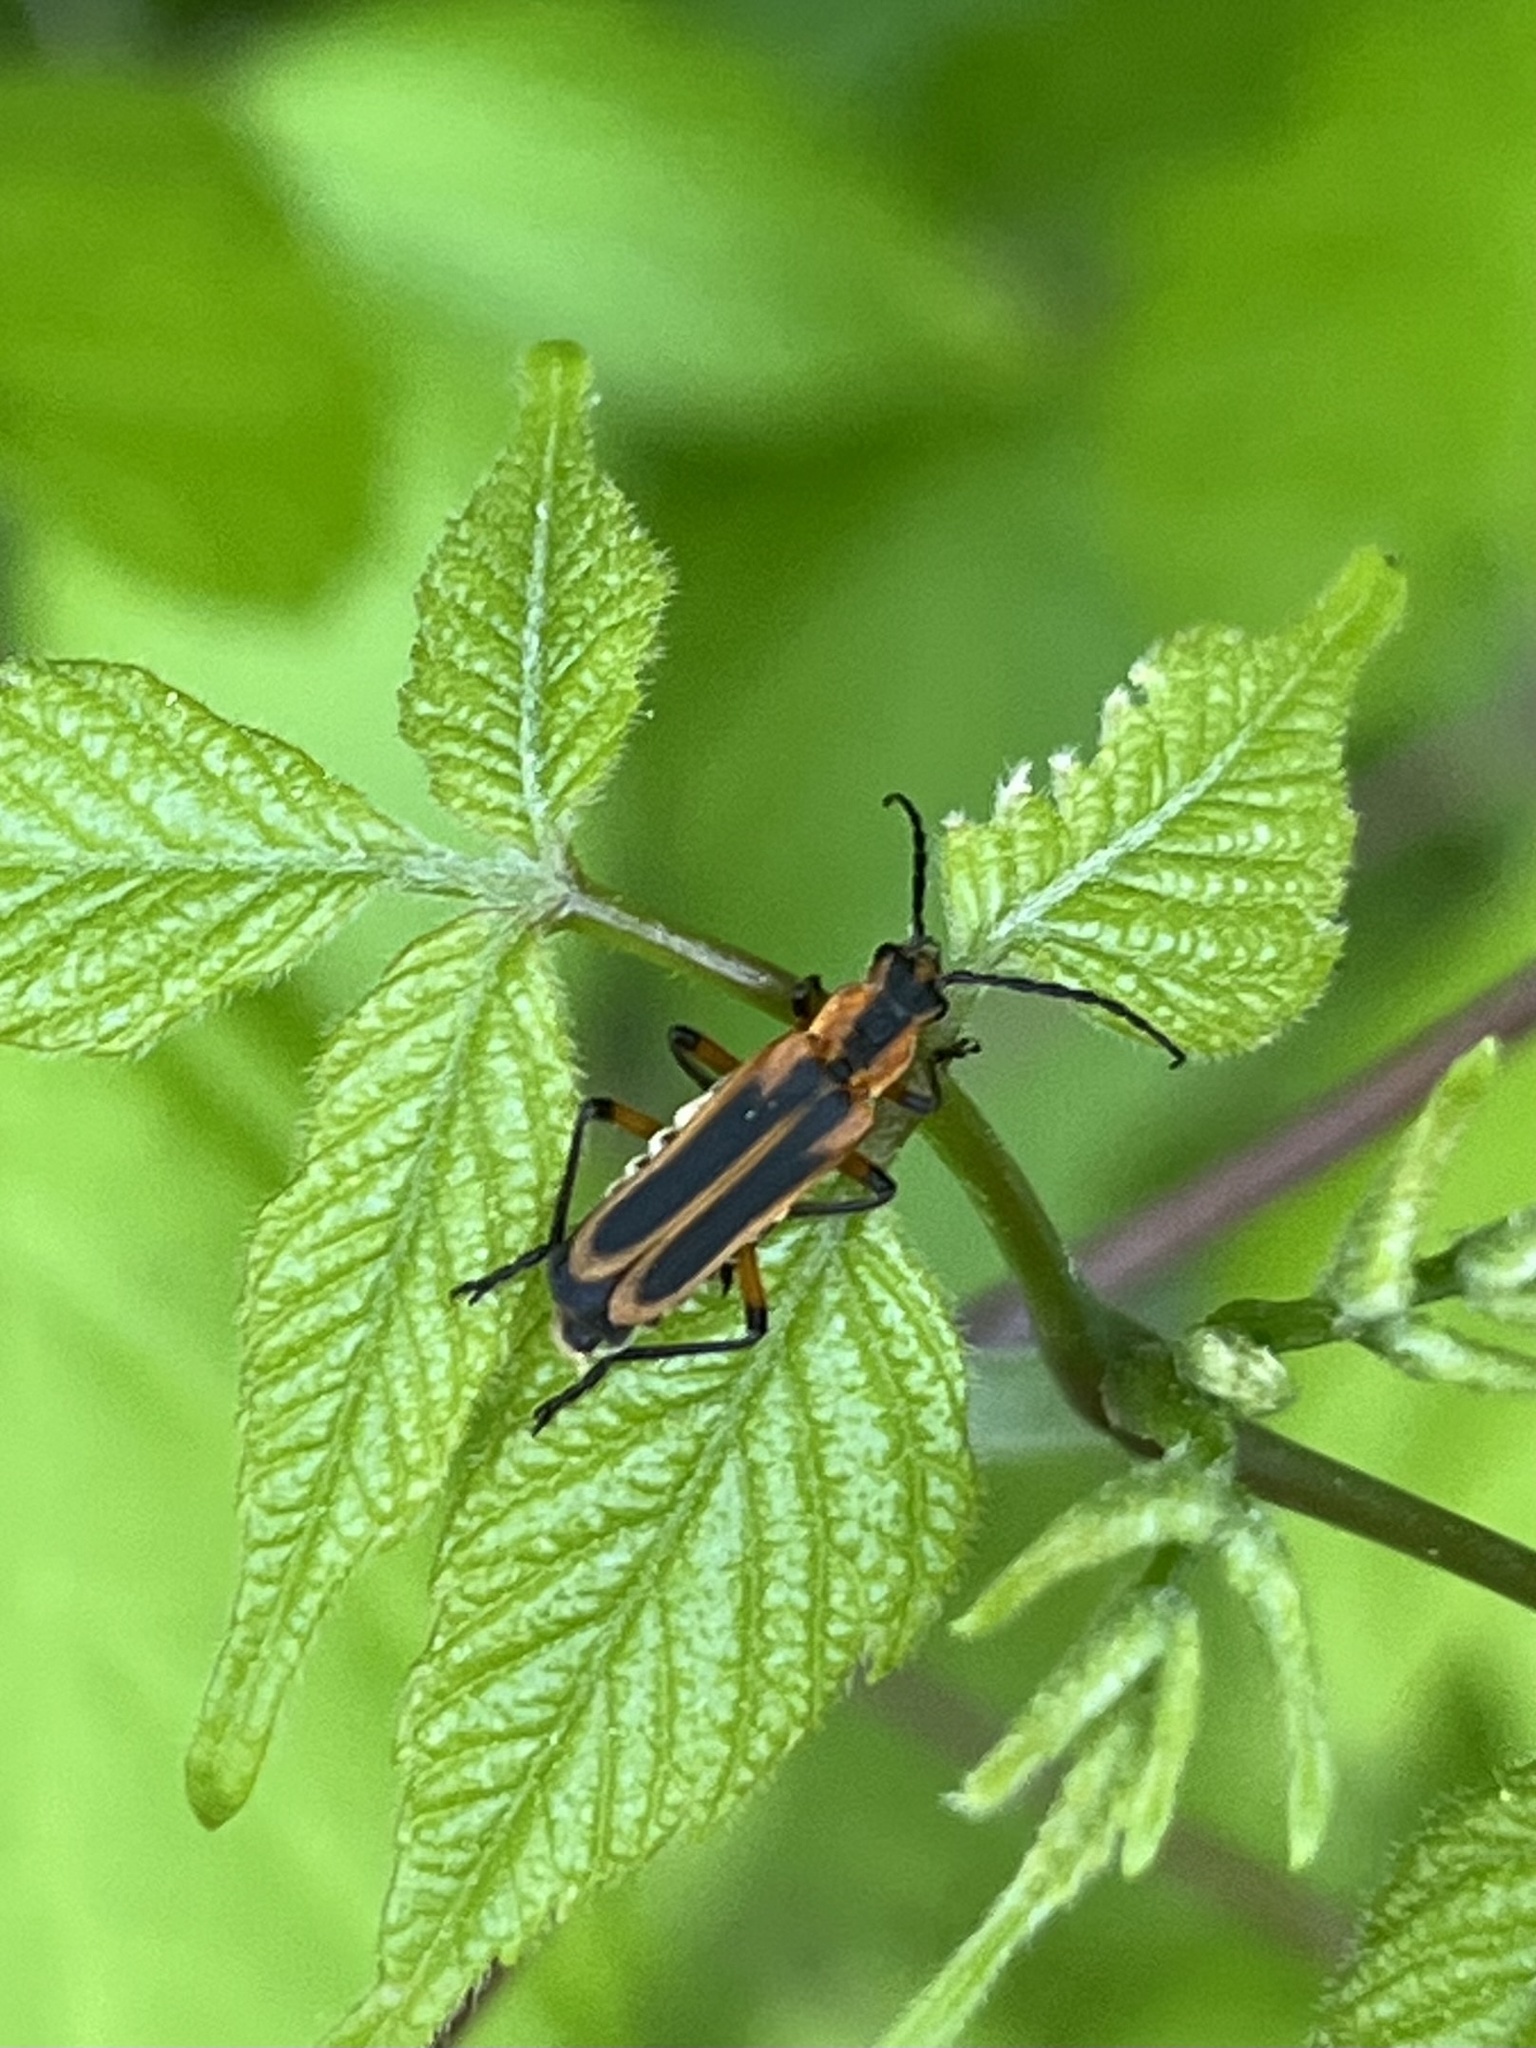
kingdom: Animalia
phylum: Arthropoda
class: Insecta
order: Coleoptera
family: Cantharidae
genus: Chauliognathus
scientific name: Chauliognathus marginatus
